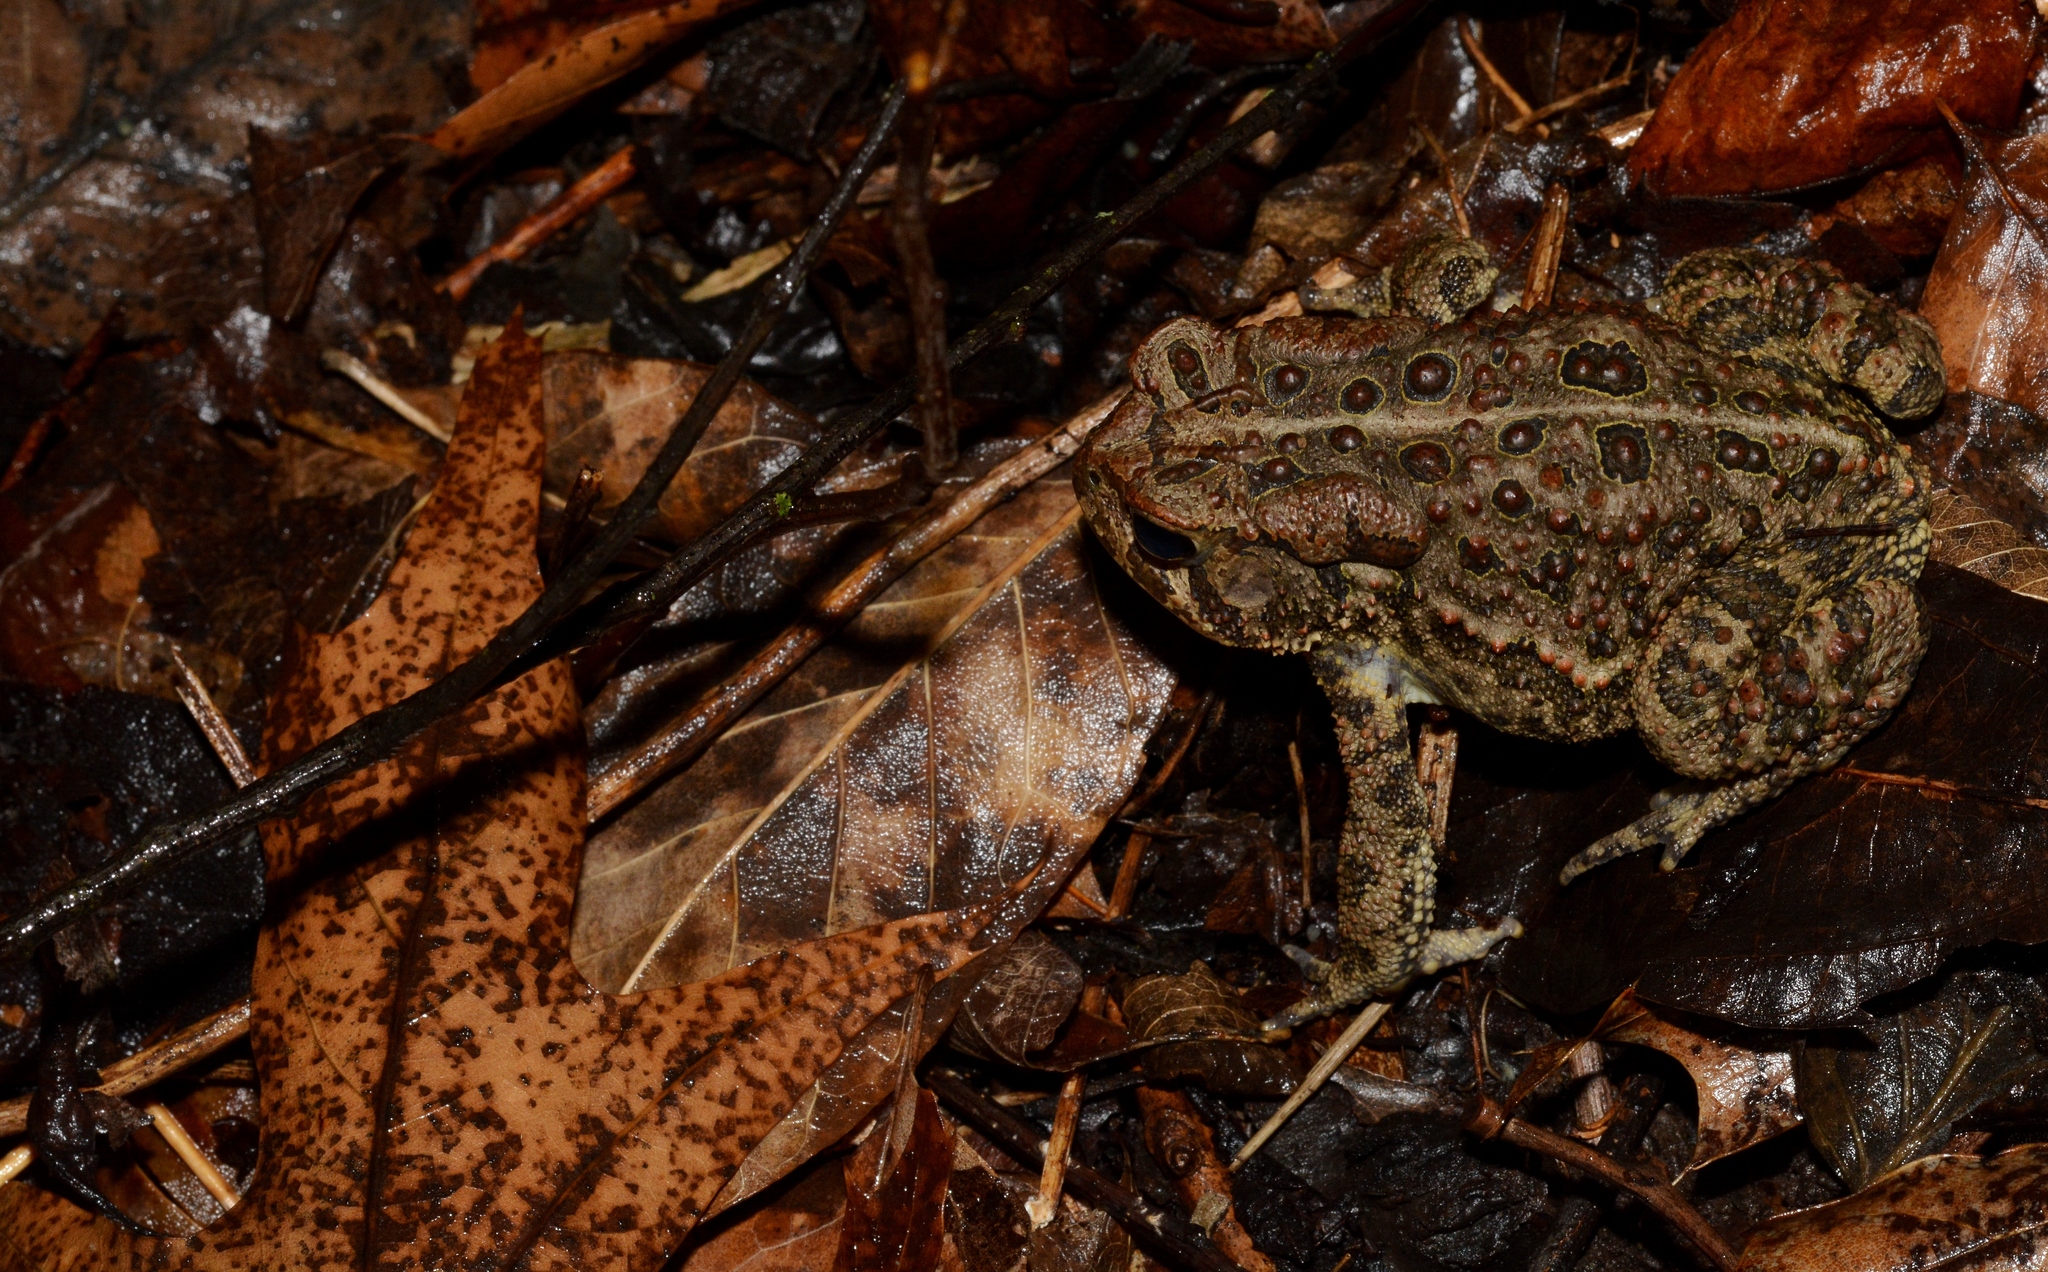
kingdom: Animalia
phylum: Chordata
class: Amphibia
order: Anura
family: Bufonidae
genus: Anaxyrus
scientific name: Anaxyrus americanus
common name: American toad
